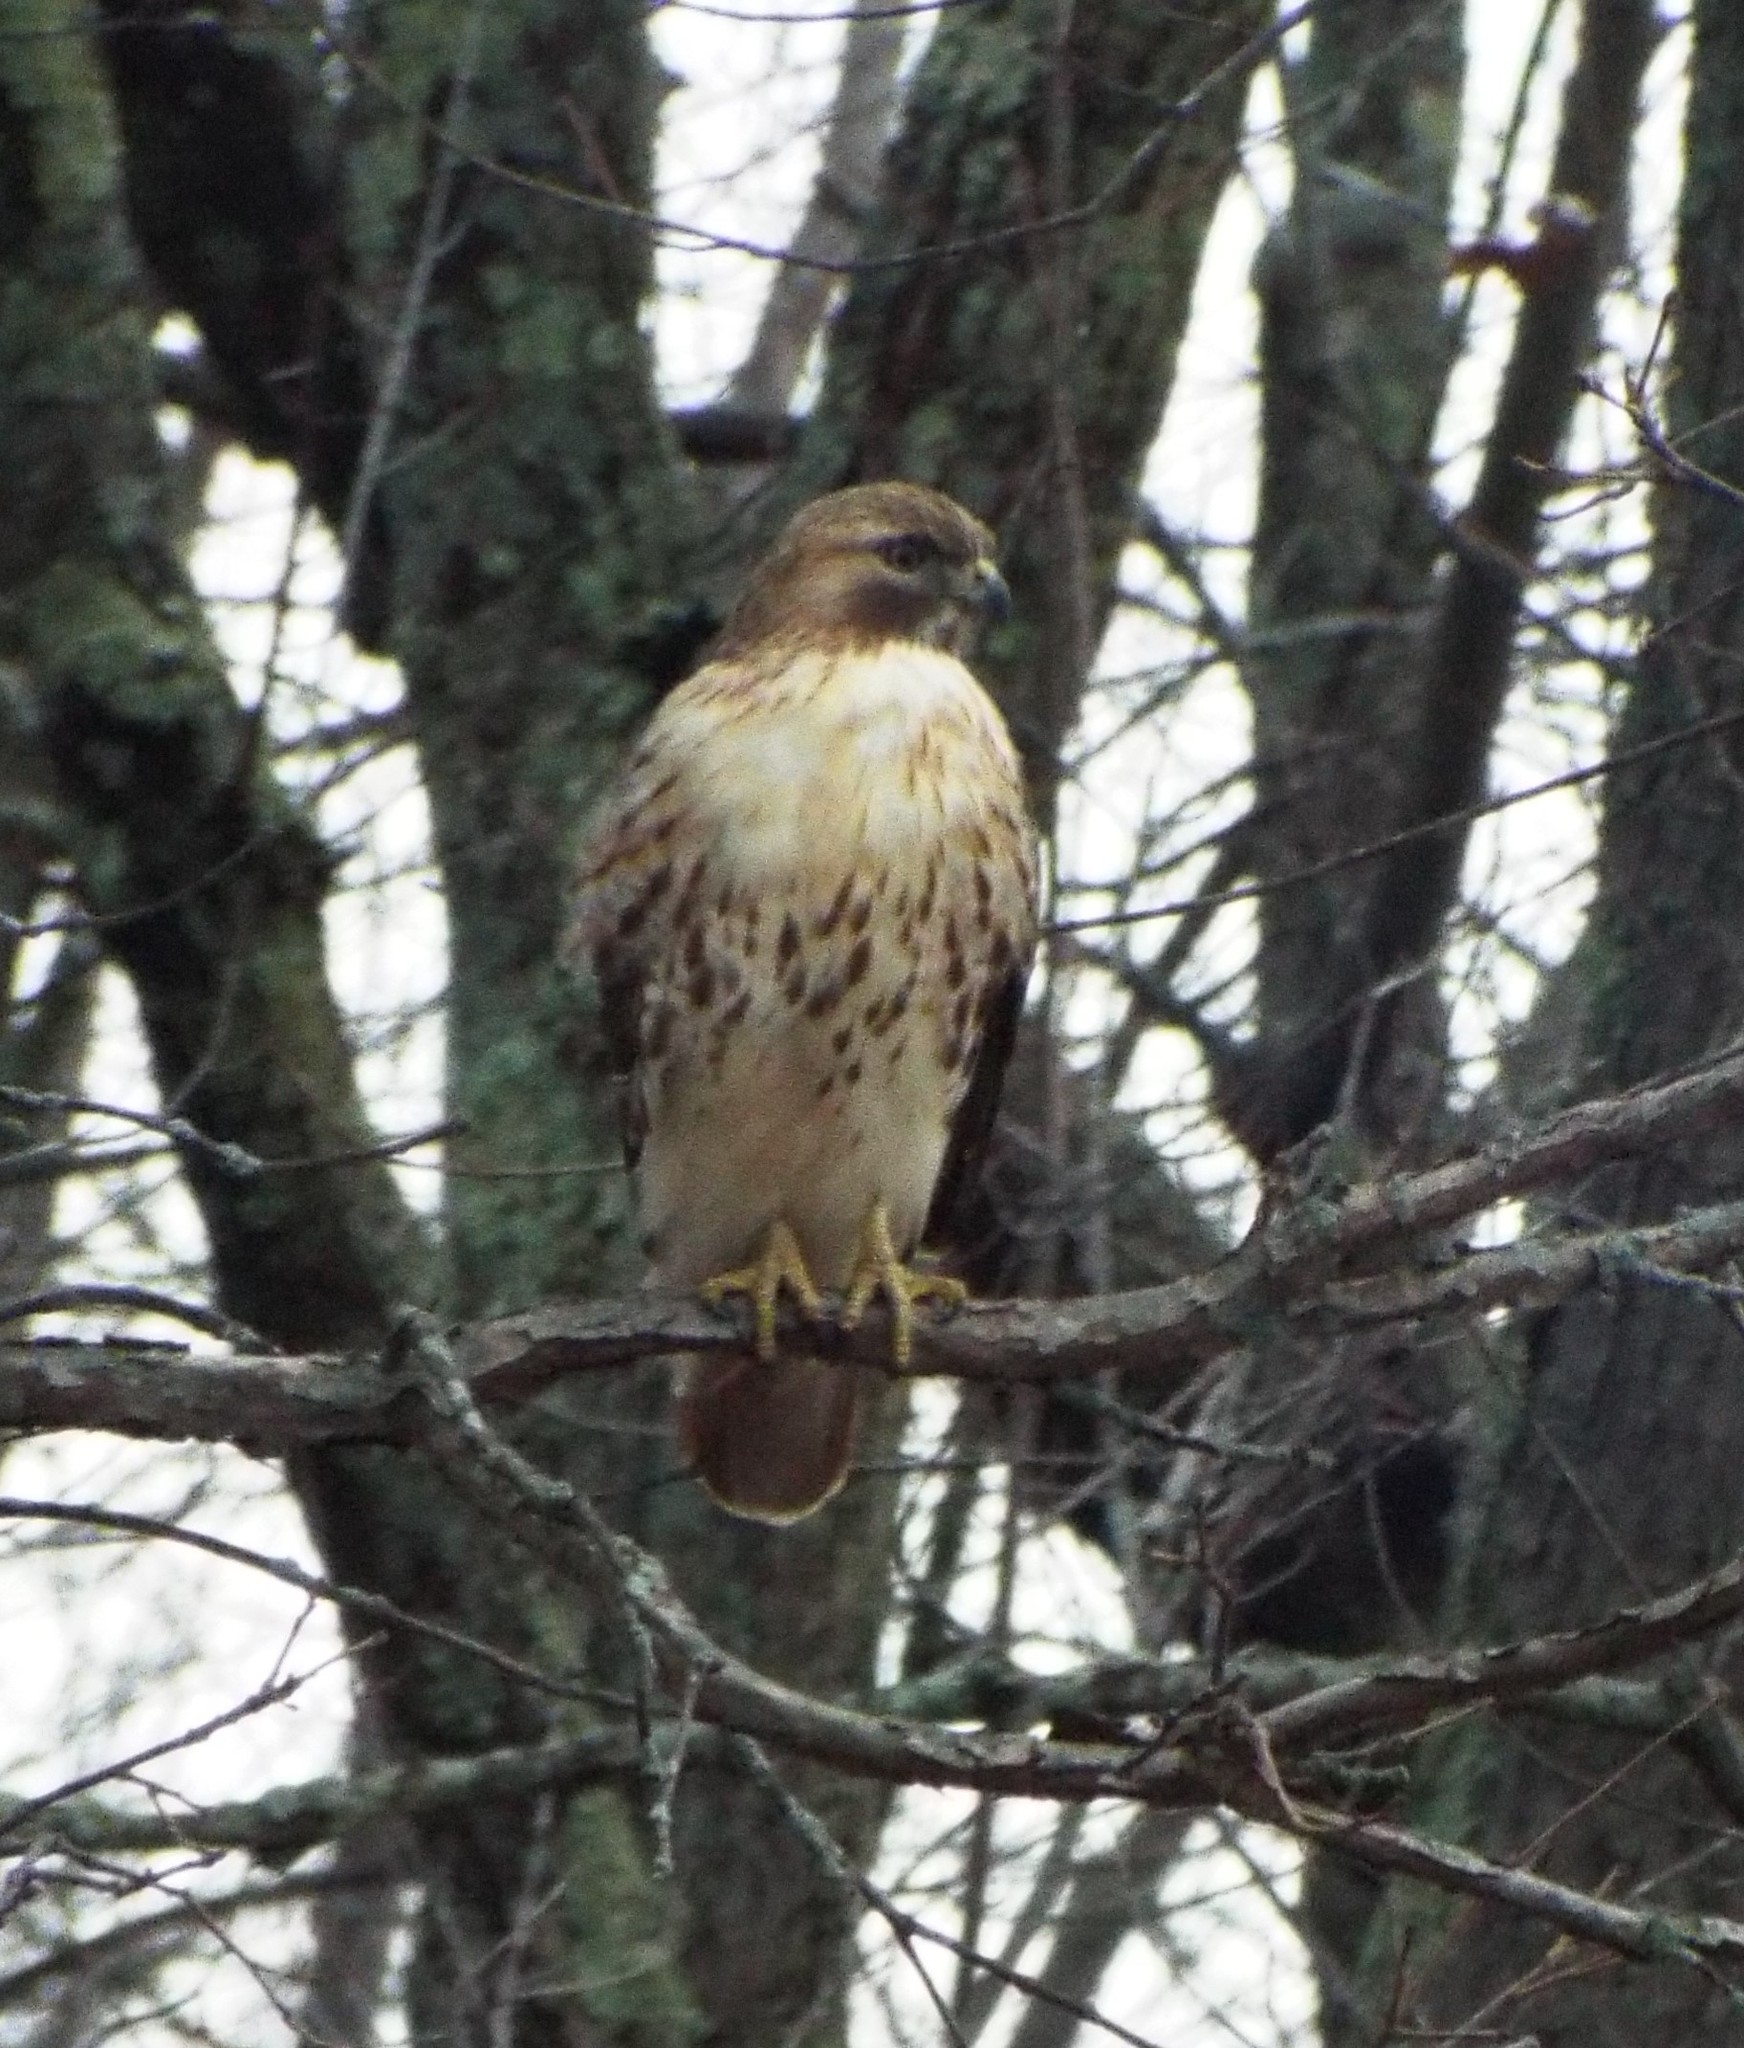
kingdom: Animalia
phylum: Chordata
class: Aves
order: Accipitriformes
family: Accipitridae
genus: Buteo
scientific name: Buteo jamaicensis
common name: Red-tailed hawk
